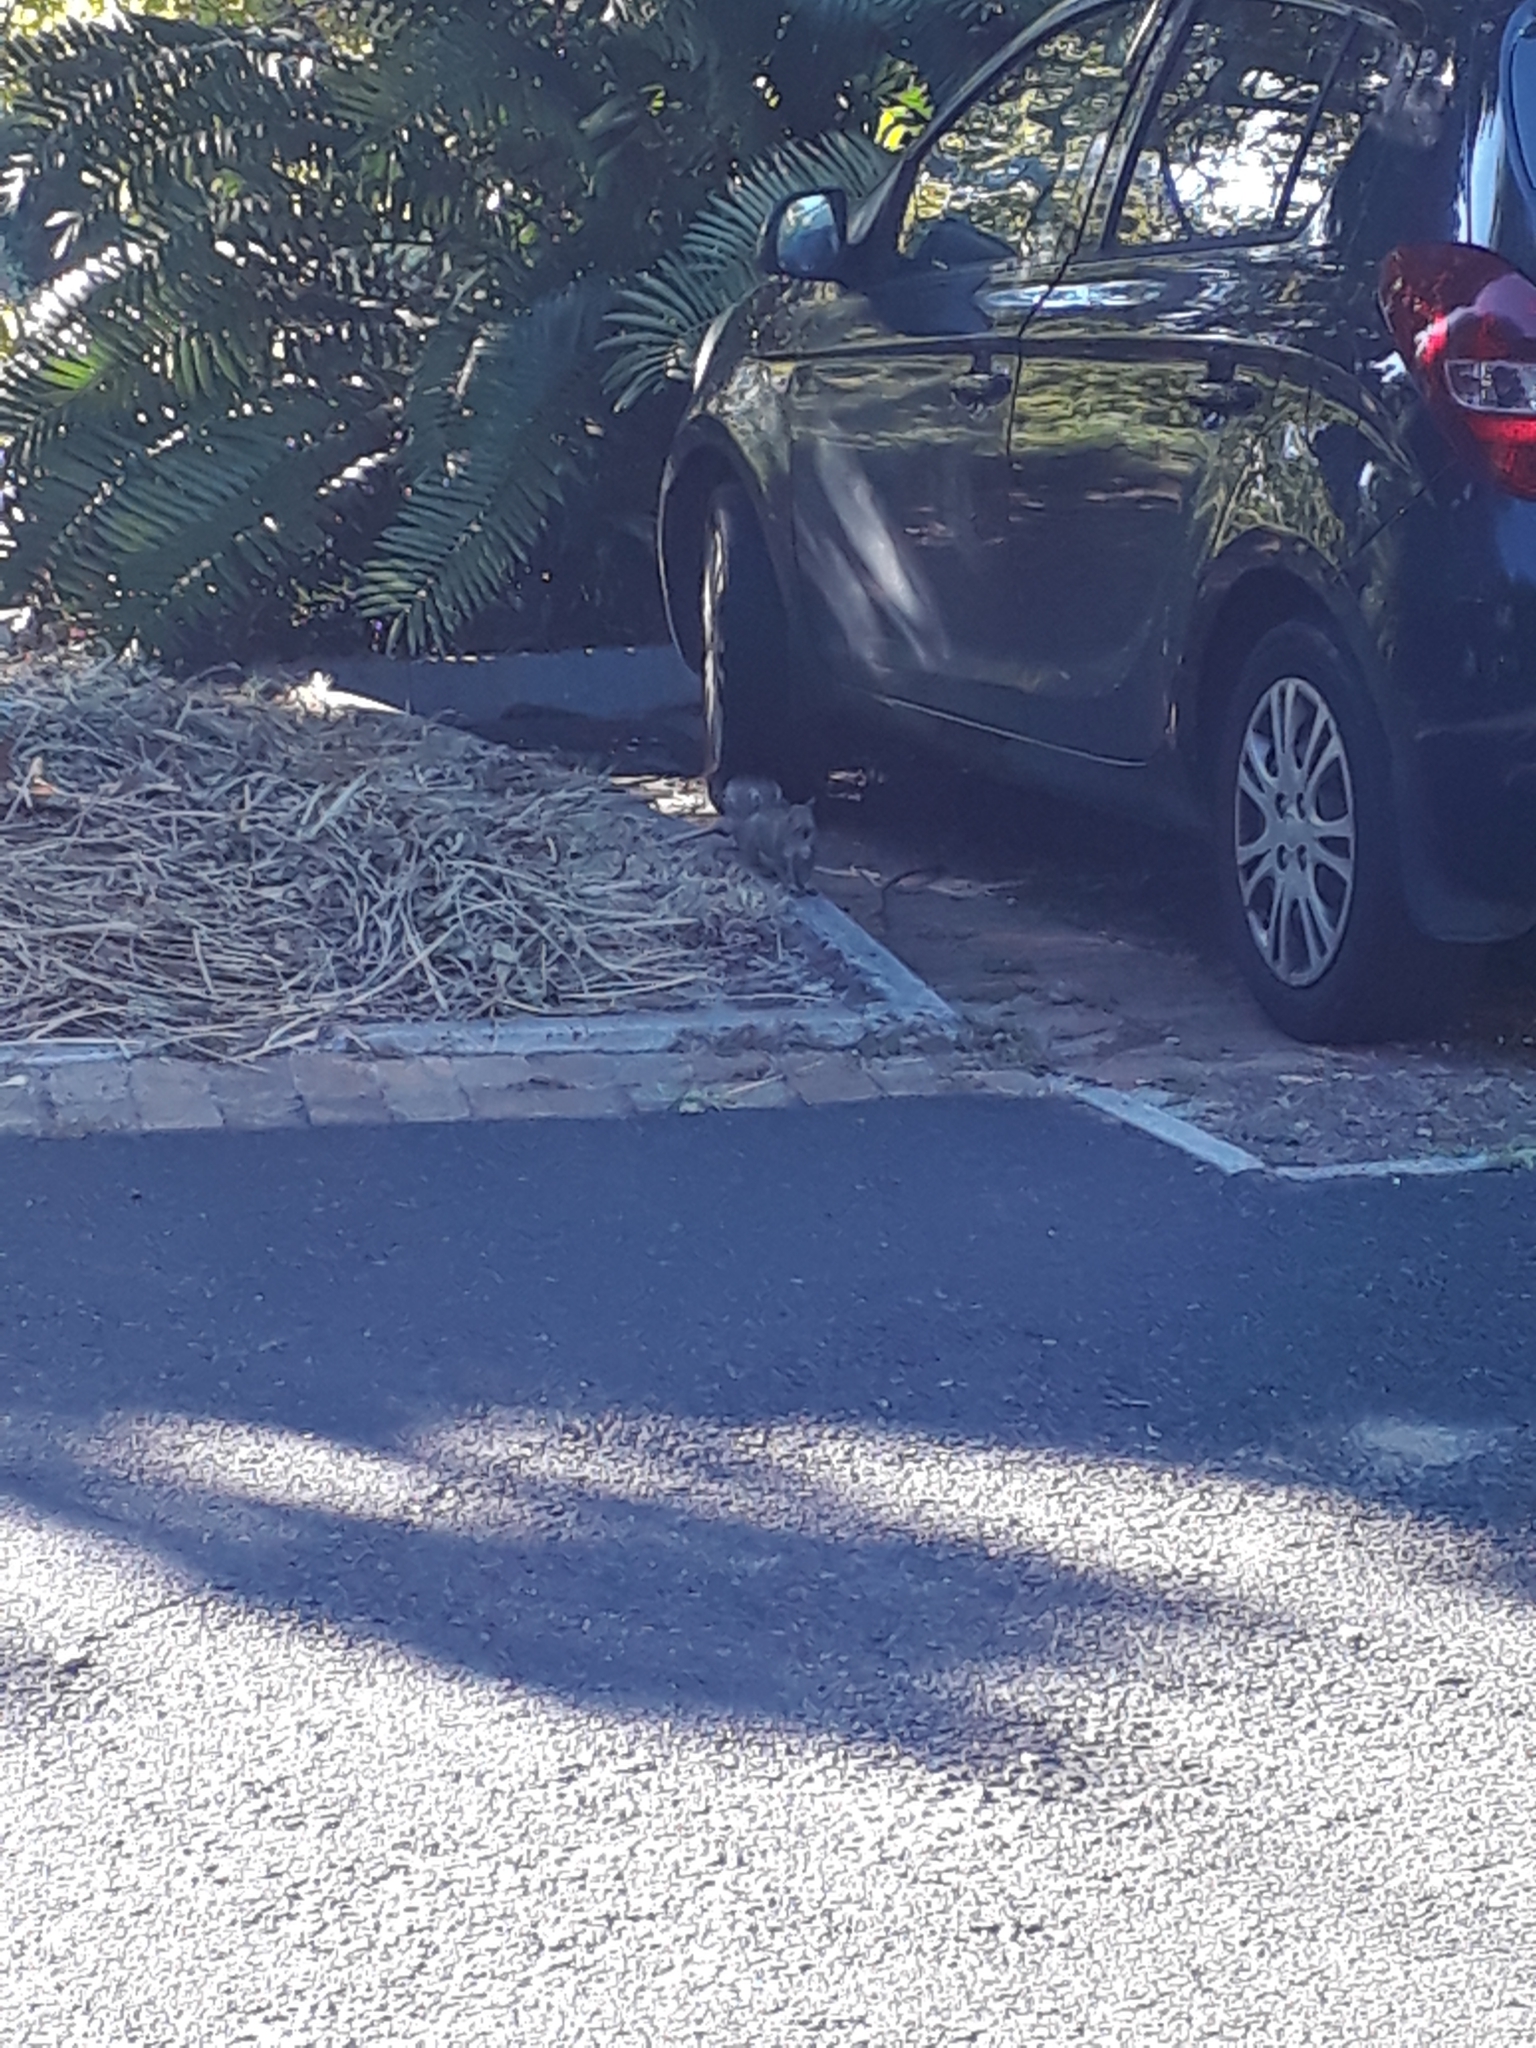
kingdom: Animalia
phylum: Chordata
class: Mammalia
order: Rodentia
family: Sciuridae
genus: Sciurus
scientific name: Sciurus carolinensis
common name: Eastern gray squirrel
